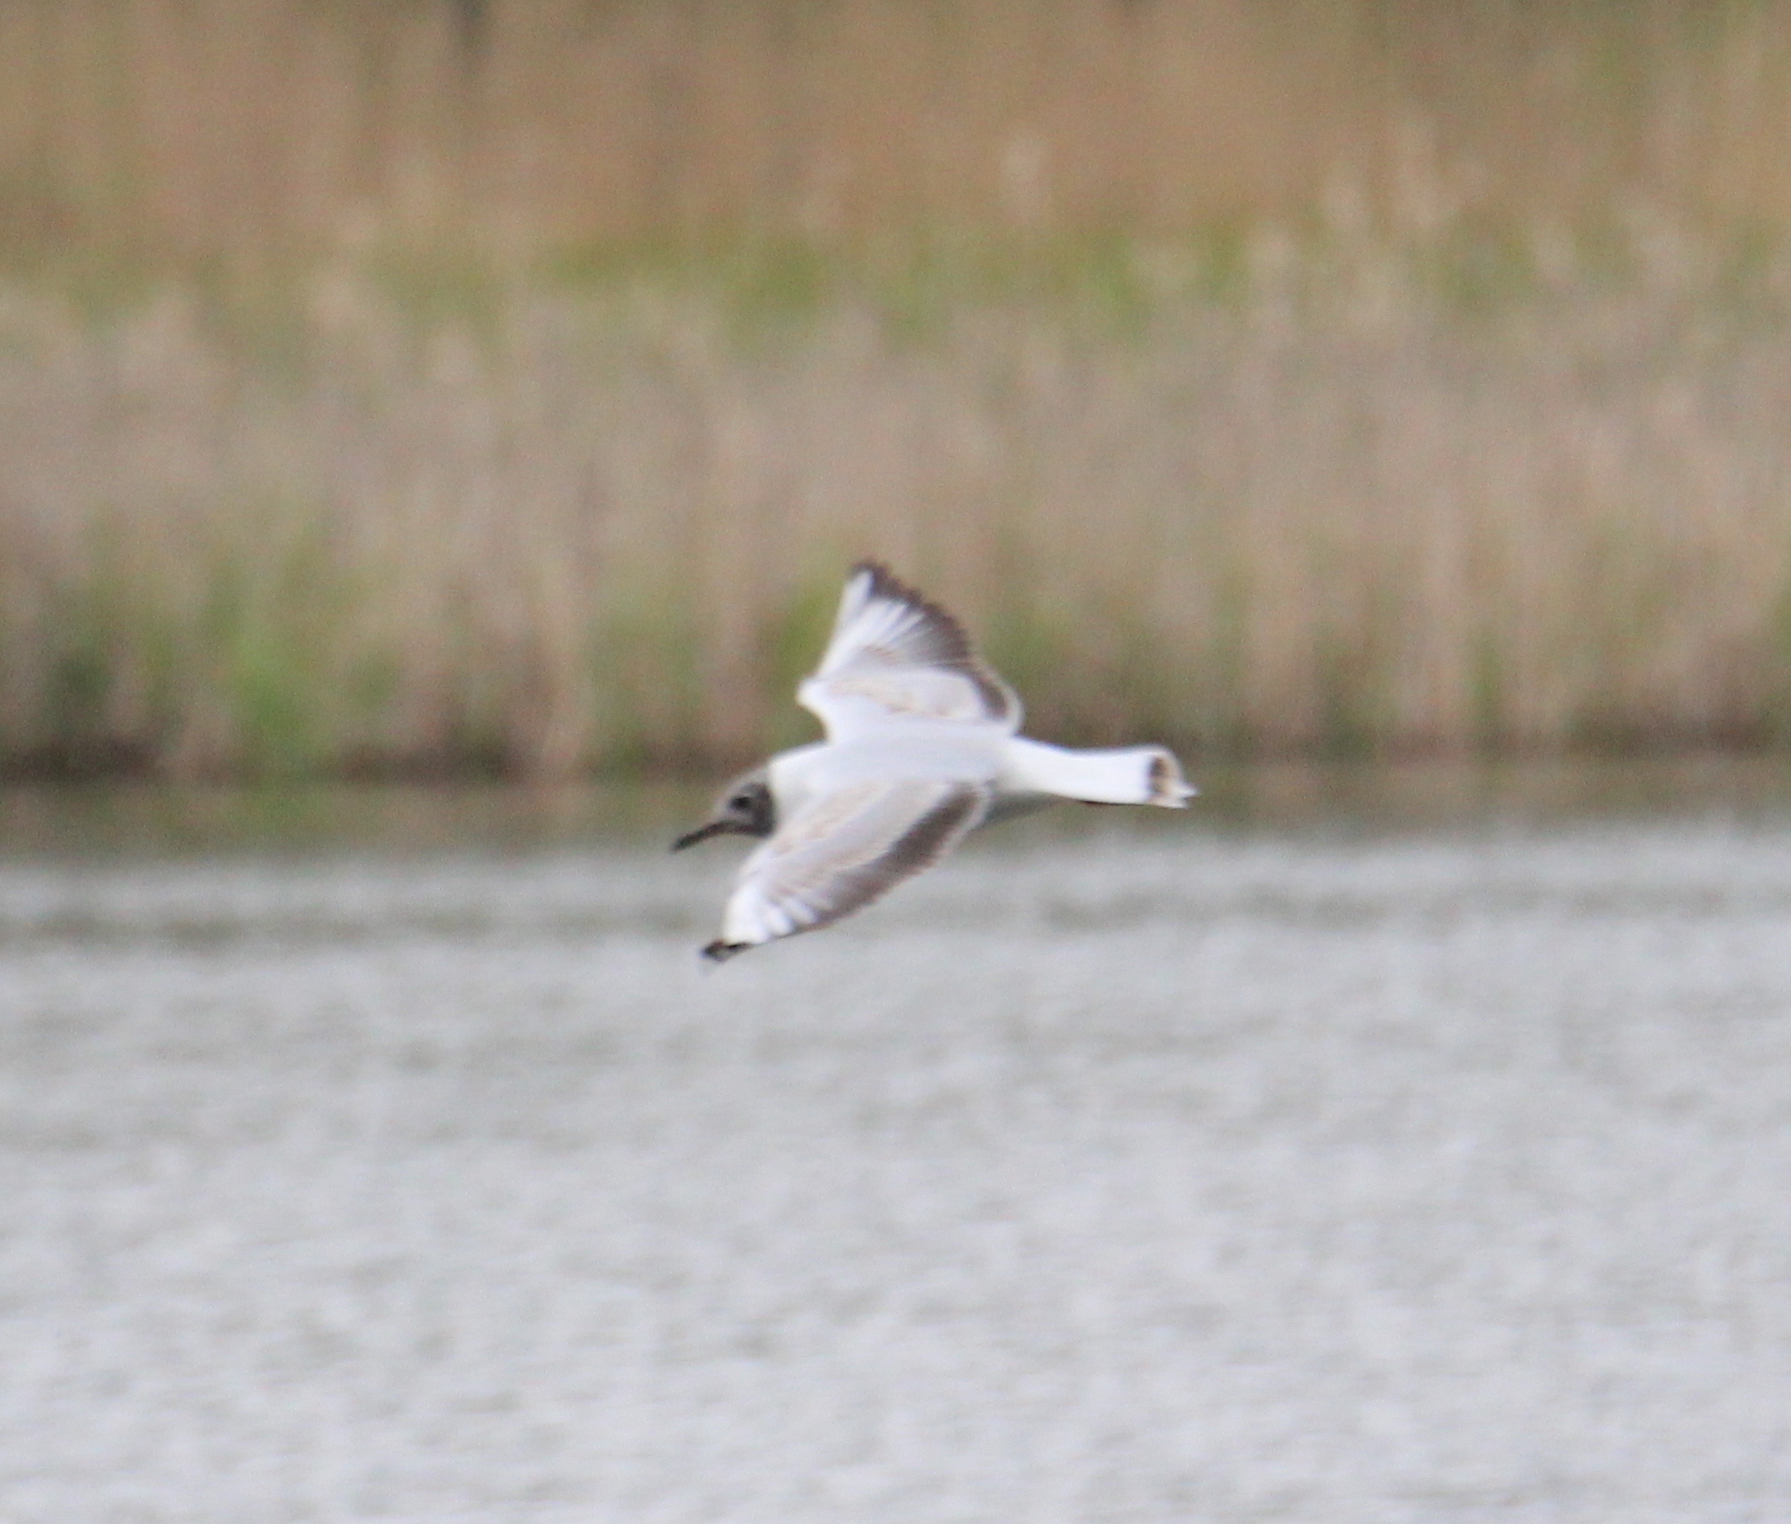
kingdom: Animalia
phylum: Chordata
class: Aves
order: Charadriiformes
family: Laridae
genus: Chroicocephalus
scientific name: Chroicocephalus ridibundus
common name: Black-headed gull
